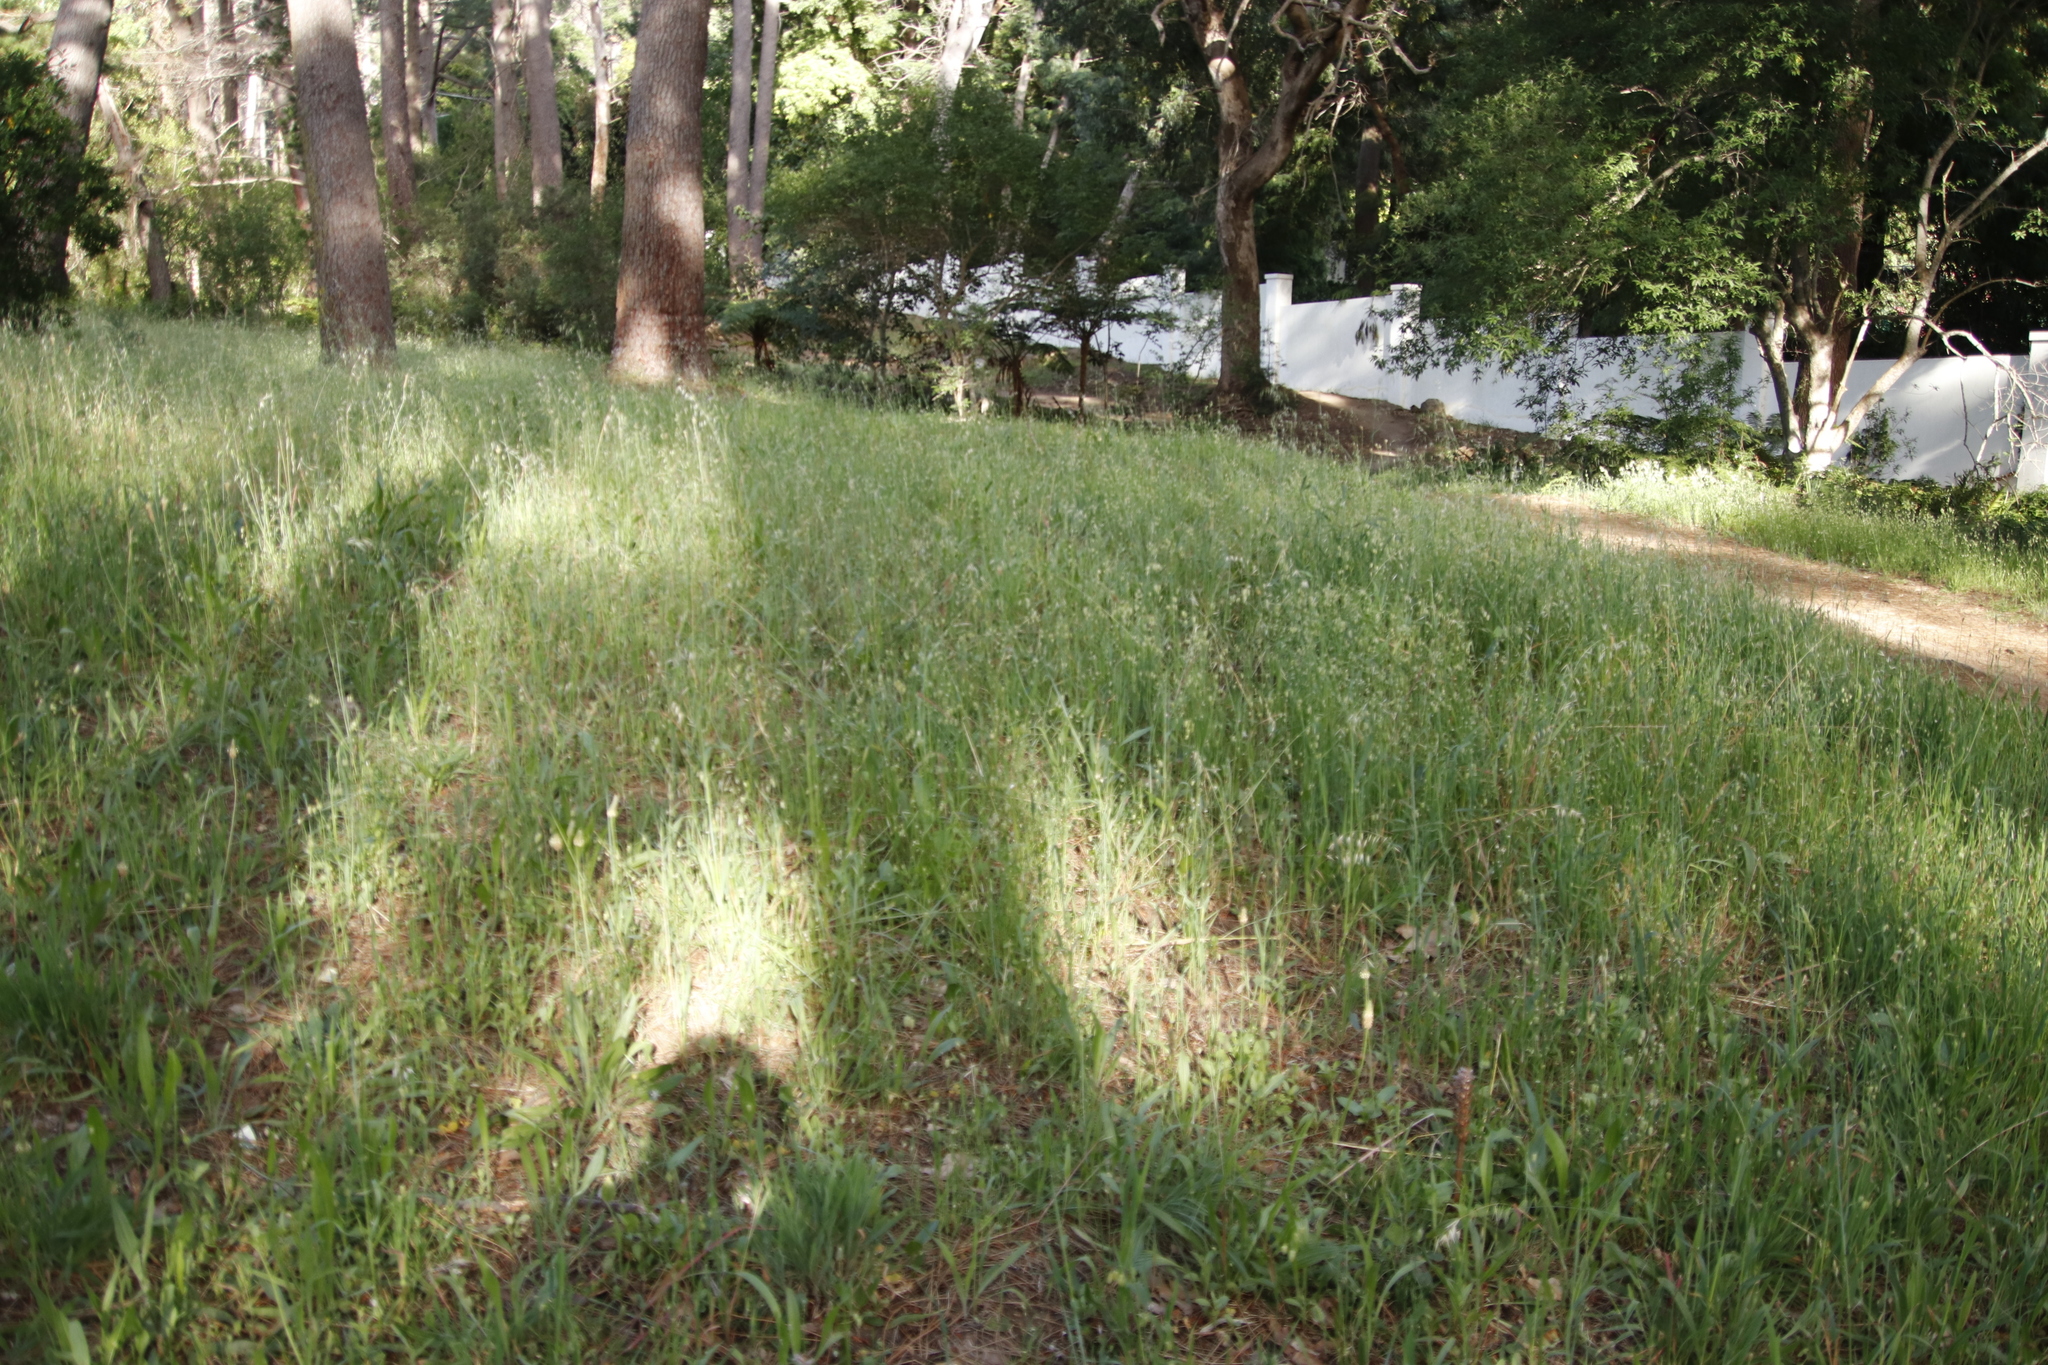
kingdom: Plantae
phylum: Tracheophyta
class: Liliopsida
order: Poales
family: Poaceae
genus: Briza
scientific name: Briza maxima
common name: Big quakinggrass
